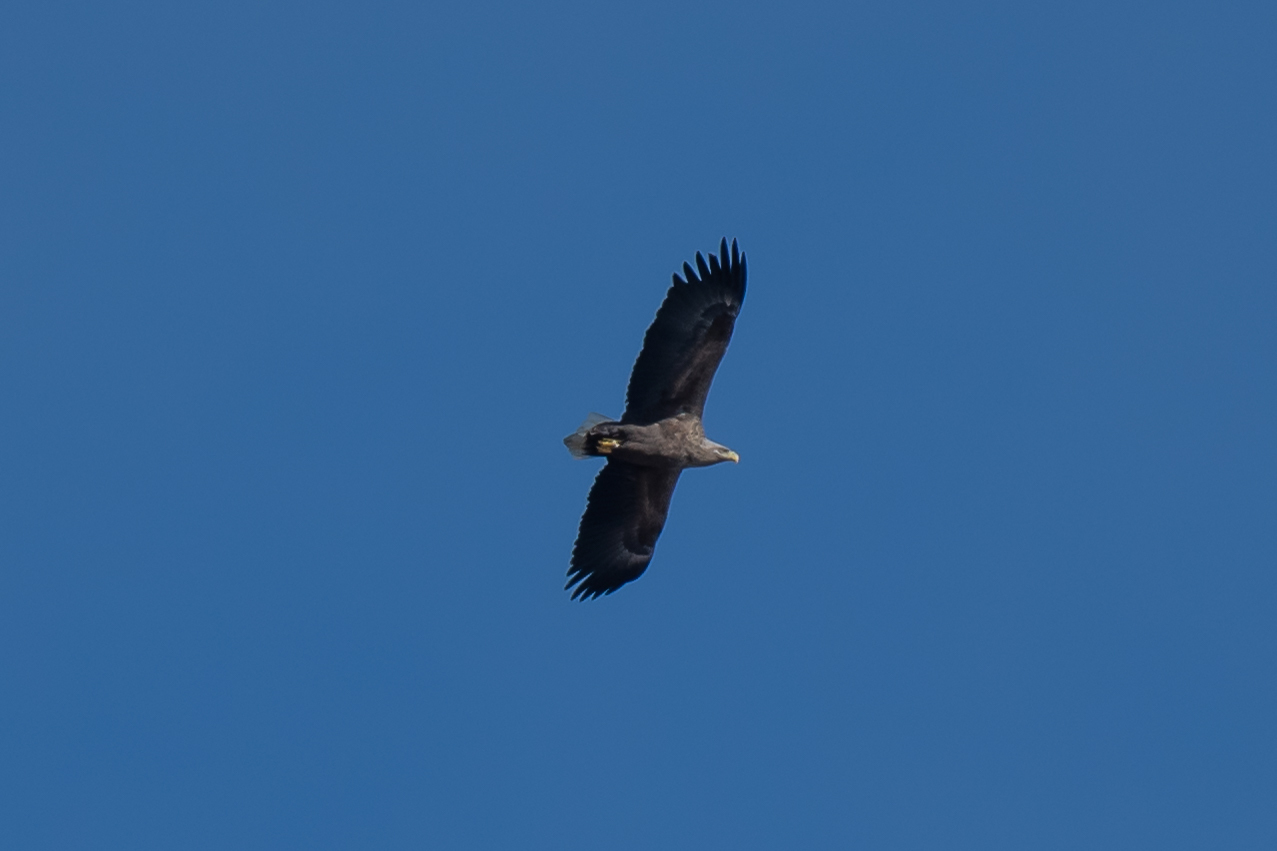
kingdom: Animalia
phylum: Chordata
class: Aves
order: Accipitriformes
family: Accipitridae
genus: Haliaeetus
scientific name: Haliaeetus albicilla
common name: White-tailed eagle
